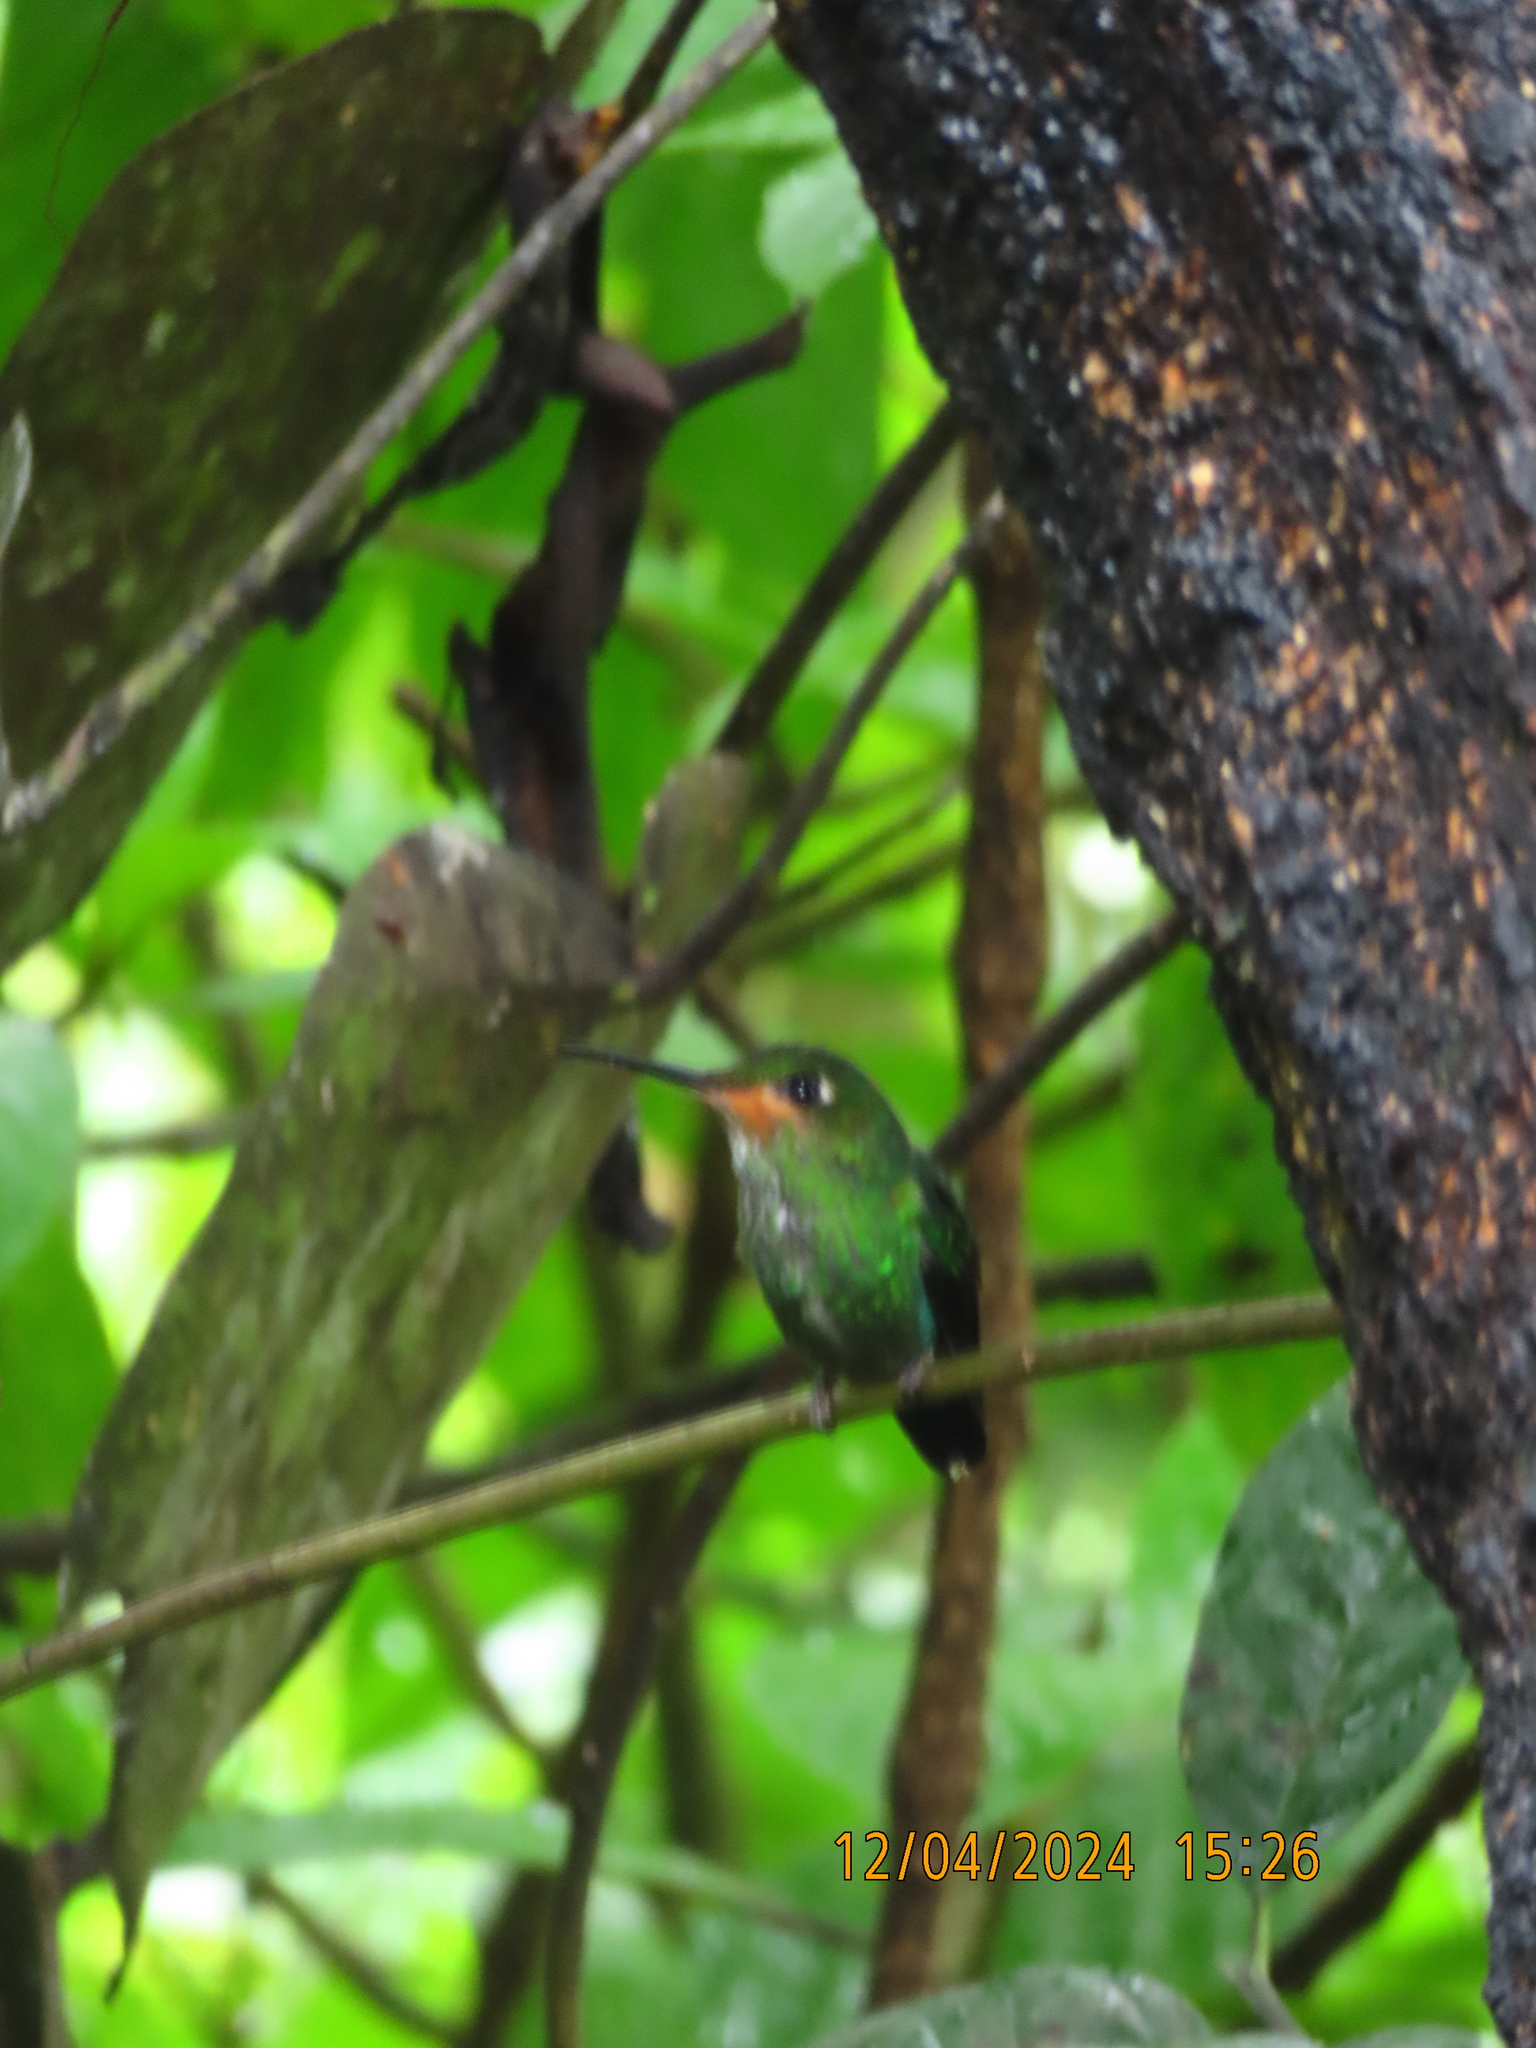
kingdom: Animalia
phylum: Chordata
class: Aves
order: Apodiformes
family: Trochilidae
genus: Heliodoxa
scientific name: Heliodoxa jacula
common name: Green-crowned brilliant
